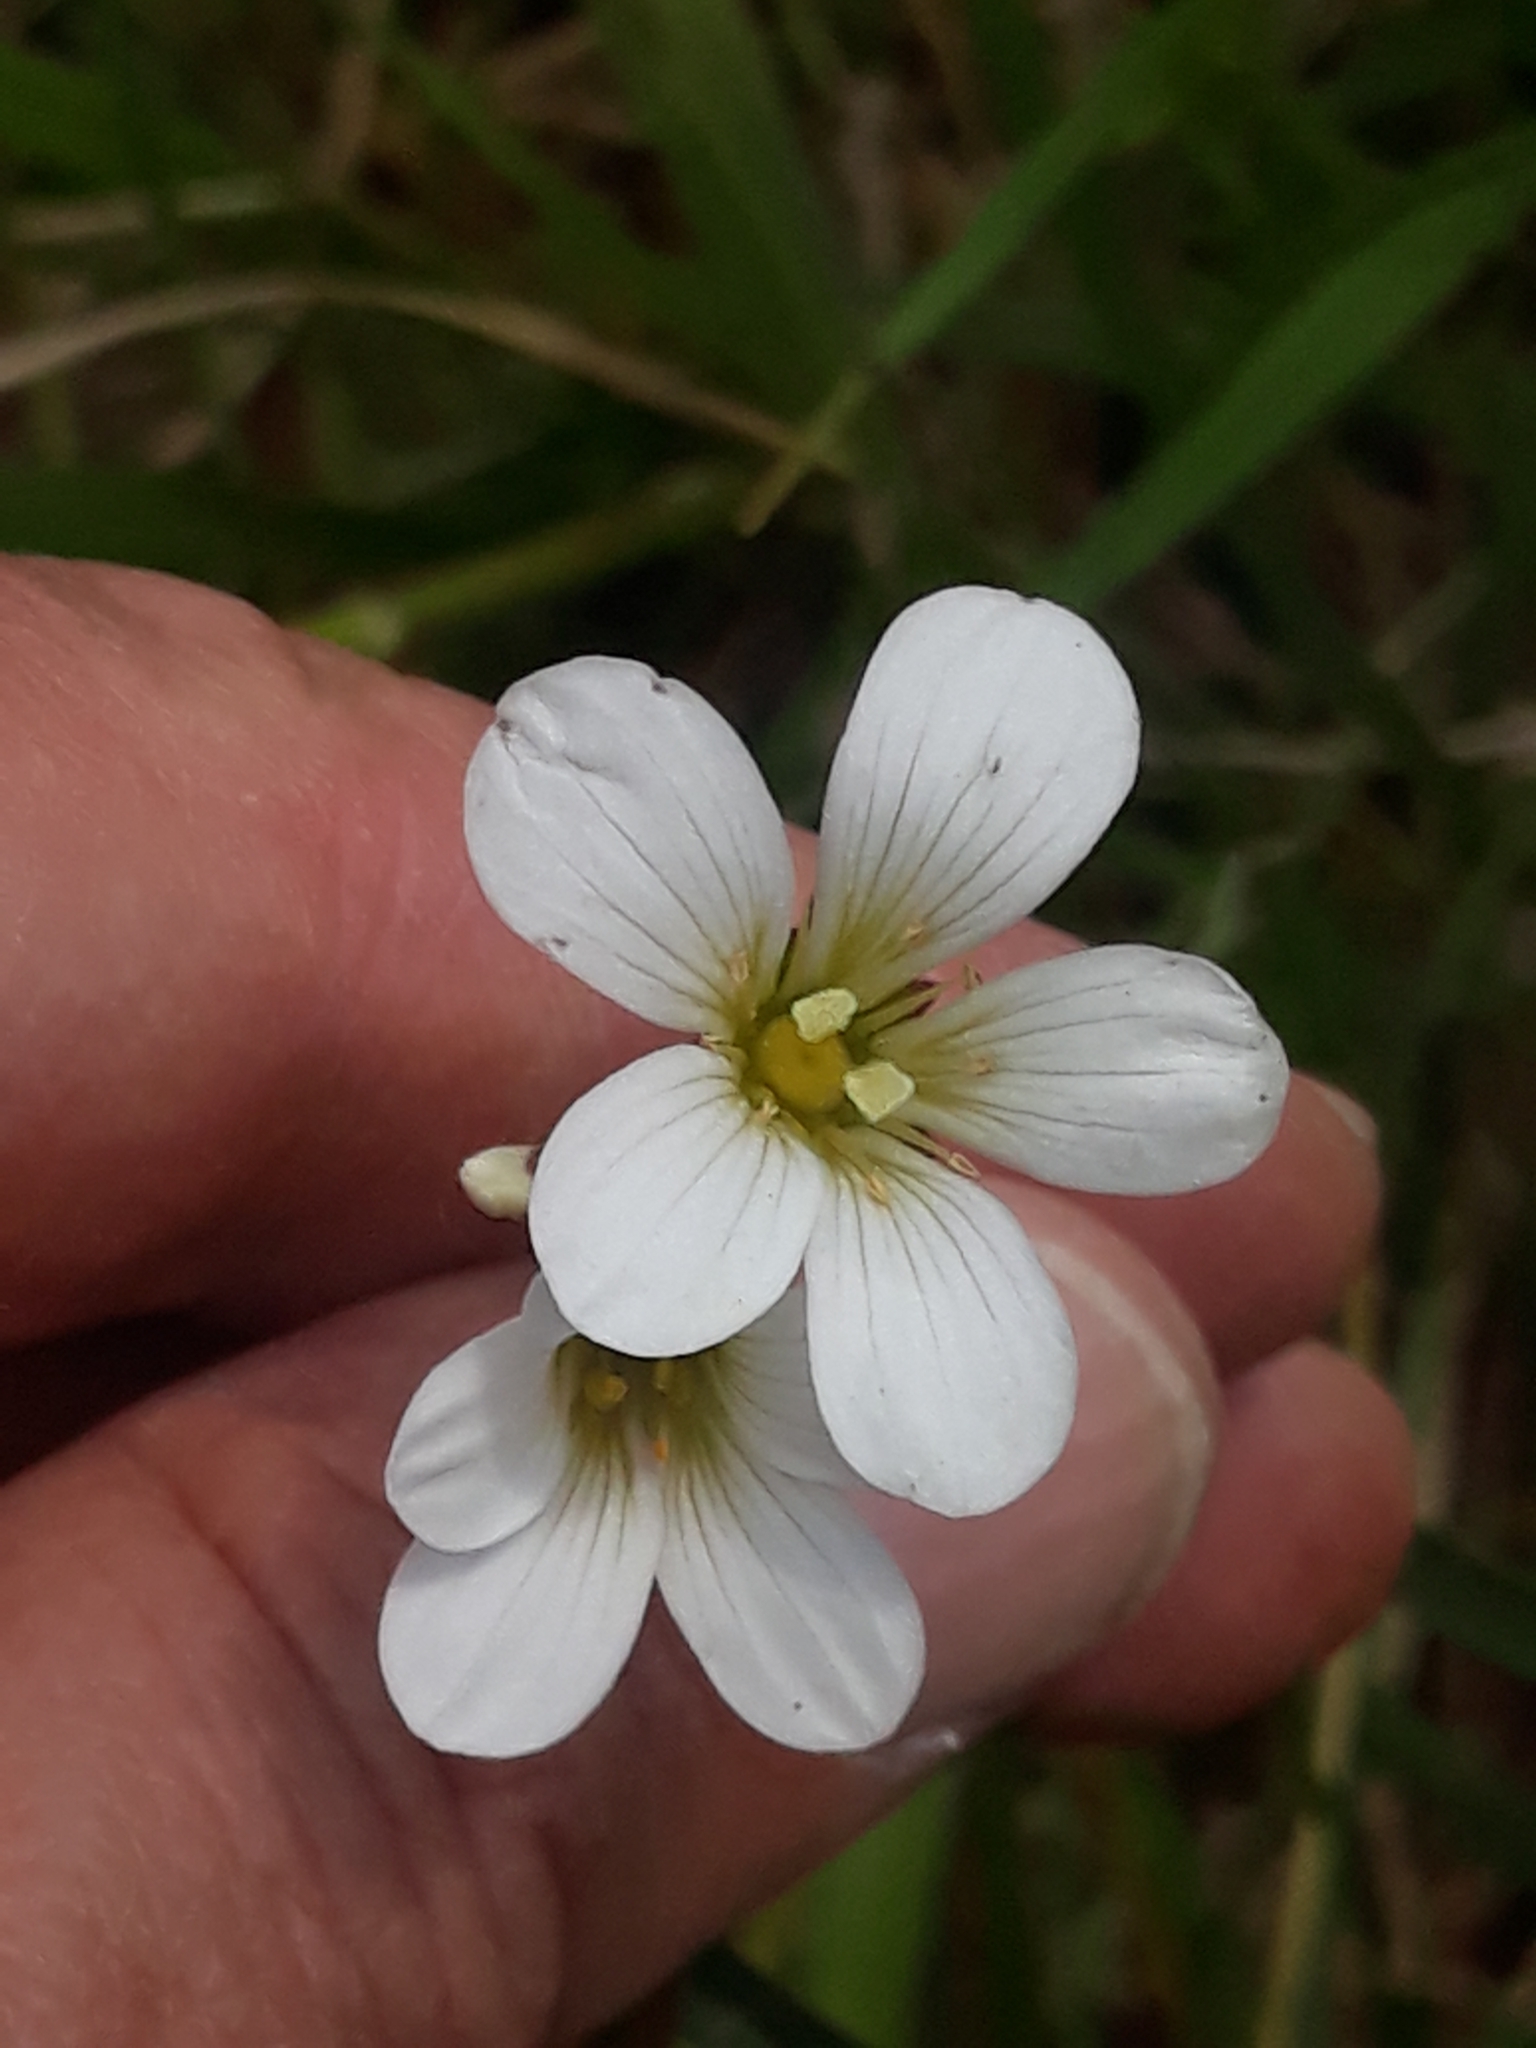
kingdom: Plantae
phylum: Tracheophyta
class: Magnoliopsida
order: Saxifragales
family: Saxifragaceae
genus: Saxifraga
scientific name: Saxifraga granulata
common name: Meadow saxifrage
